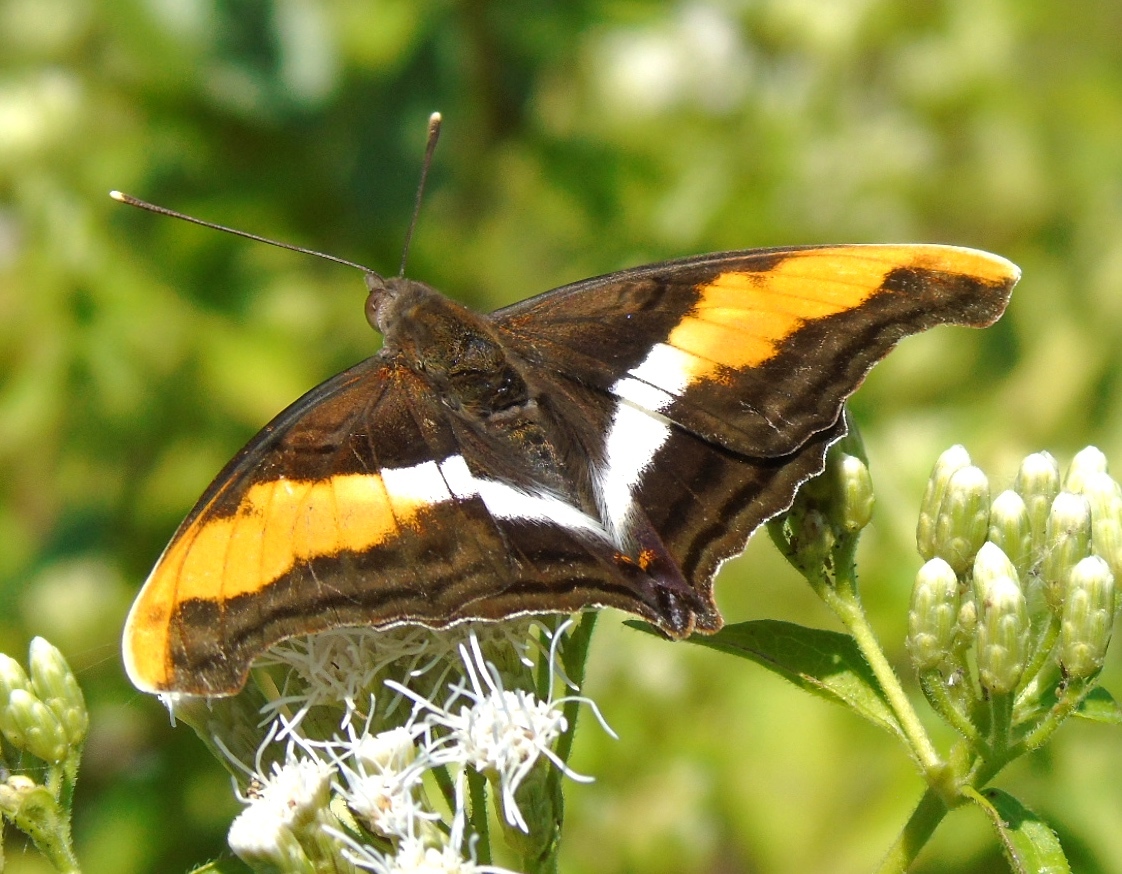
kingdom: Animalia
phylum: Arthropoda
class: Insecta
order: Lepidoptera
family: Nymphalidae
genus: Doxocopa
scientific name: Doxocopa laure
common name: Silver emperor
